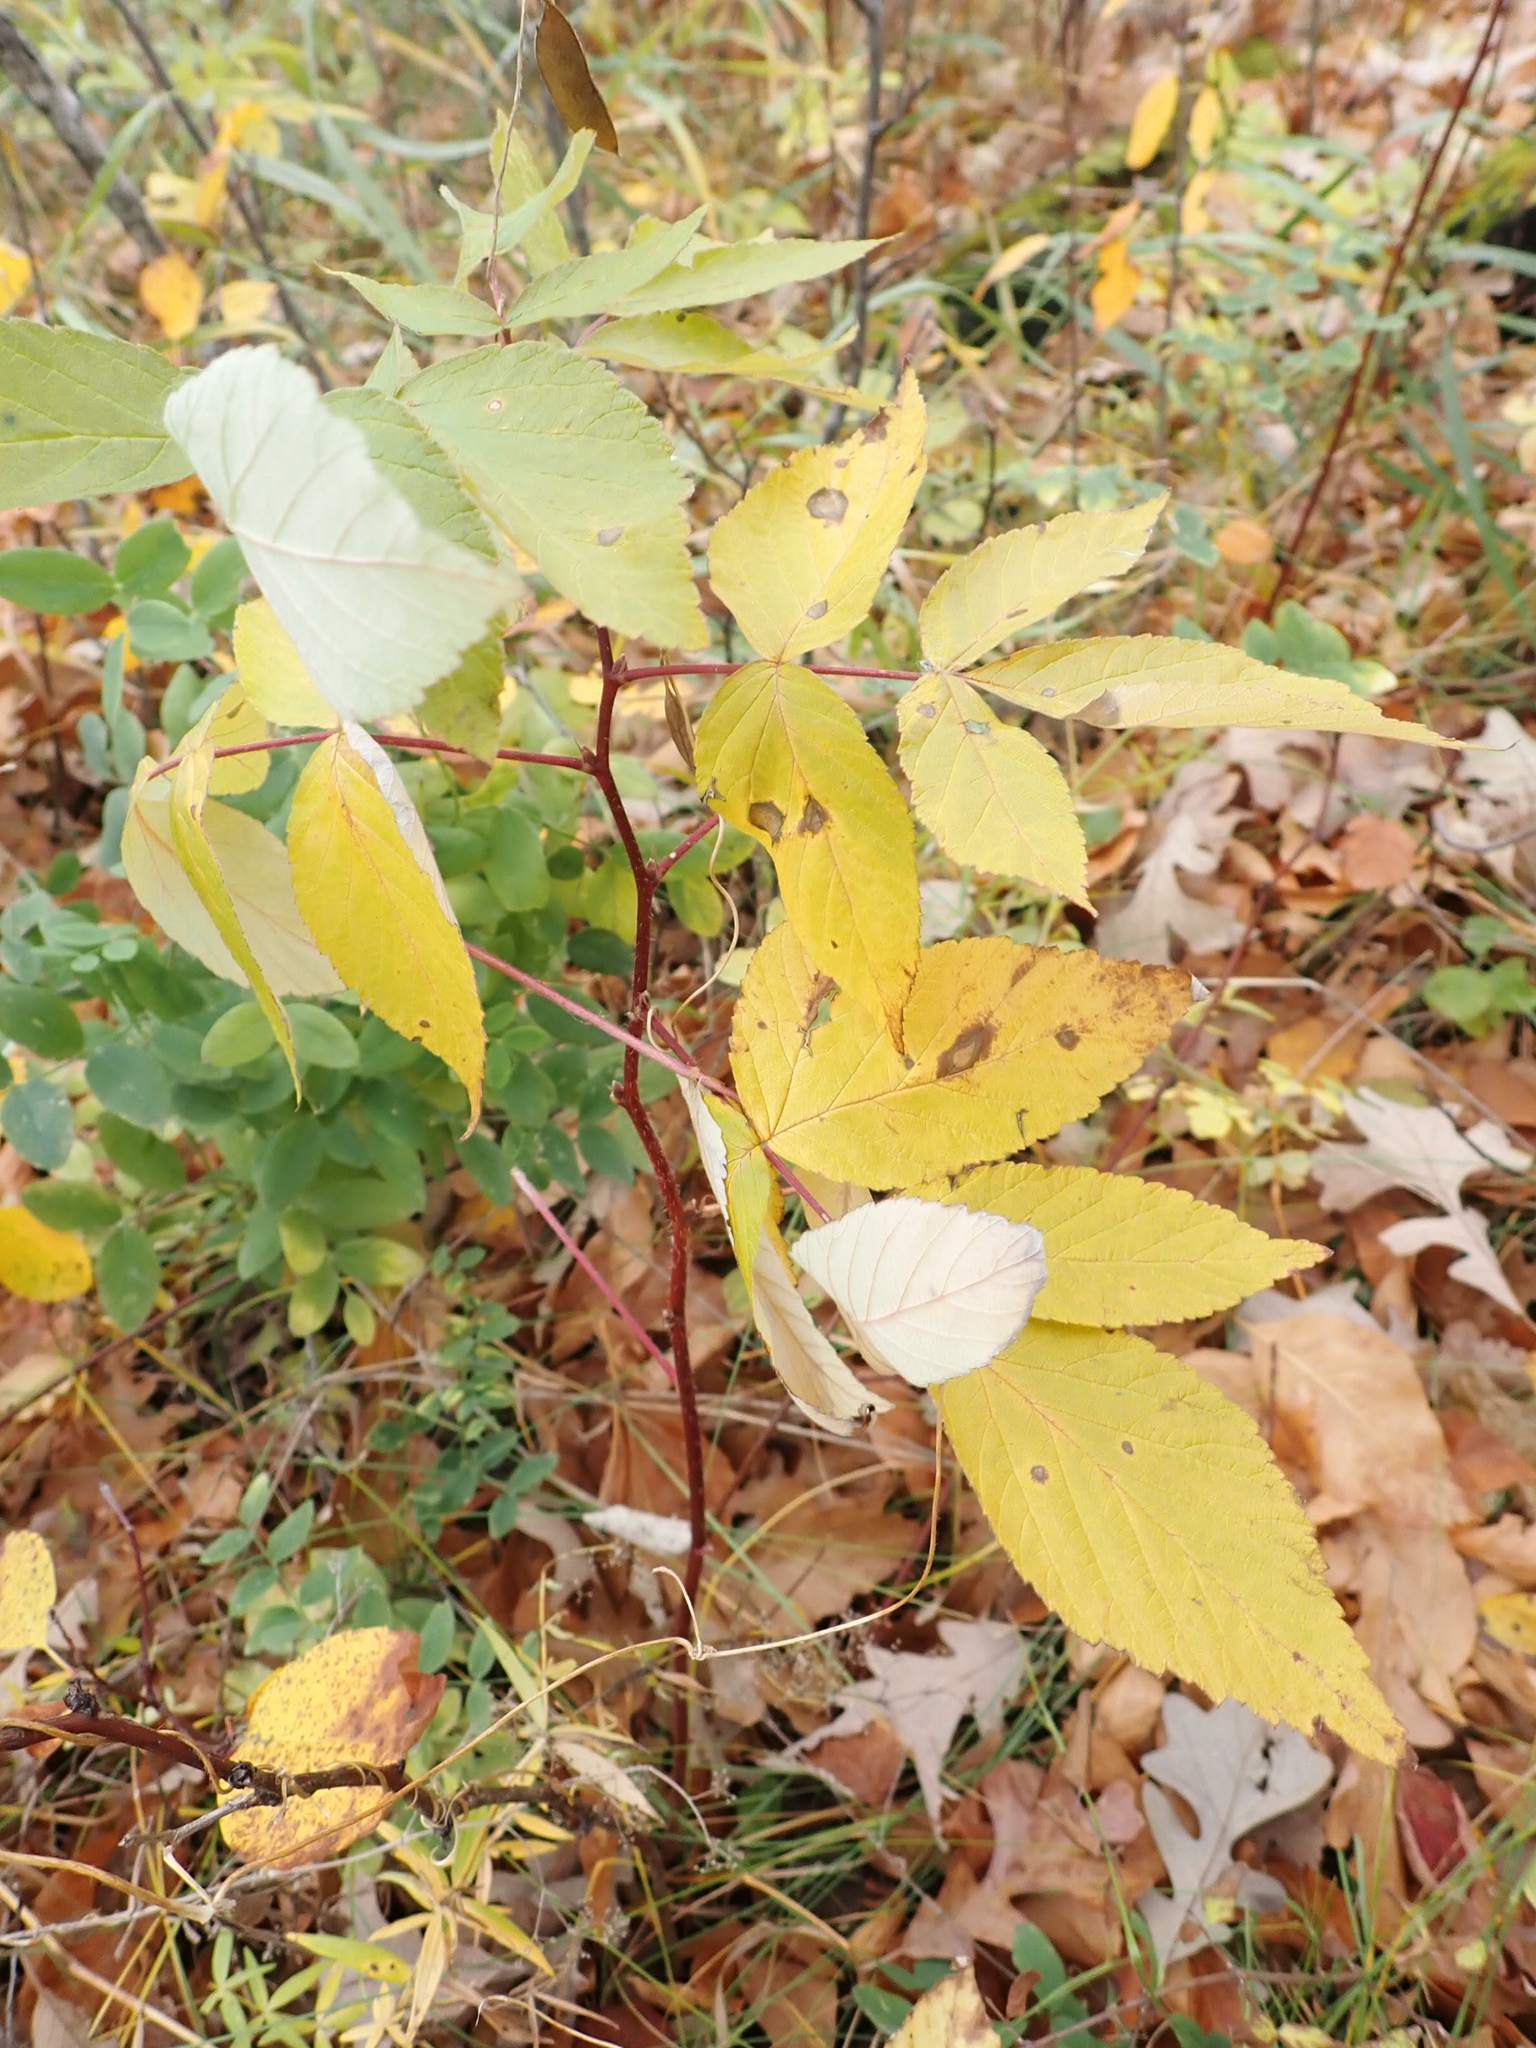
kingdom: Plantae
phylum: Tracheophyta
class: Magnoliopsida
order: Rosales
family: Rosaceae
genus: Rubus
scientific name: Rubus idaeus
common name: Raspberry
